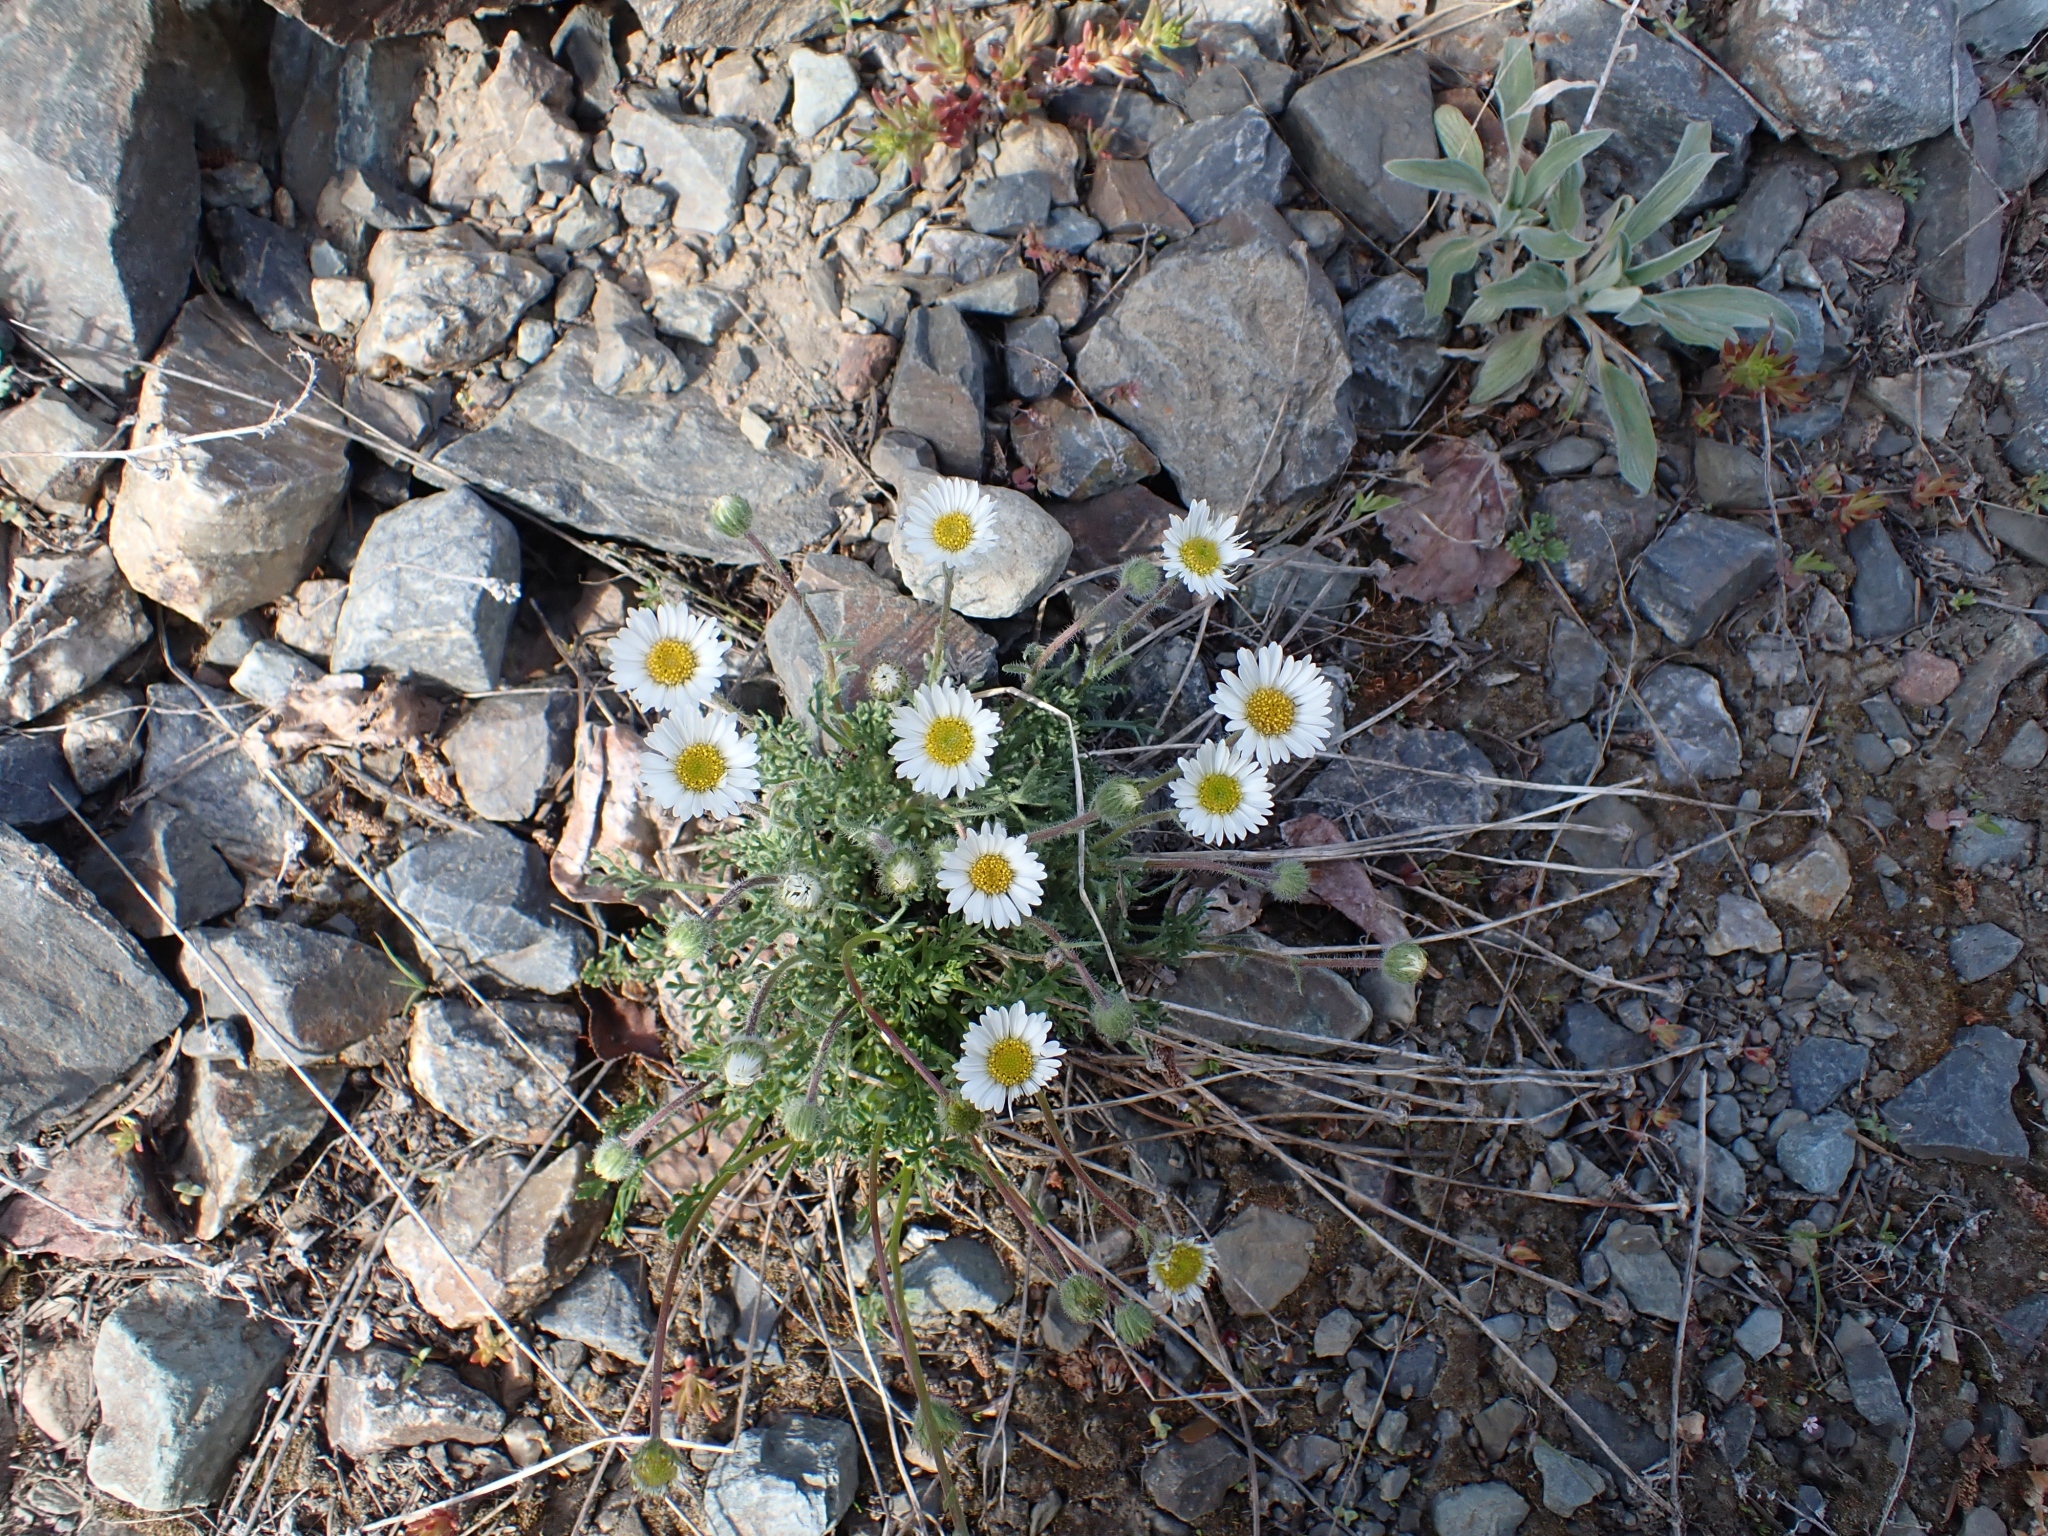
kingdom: Plantae
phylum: Tracheophyta
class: Magnoliopsida
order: Asterales
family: Asteraceae
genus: Erigeron
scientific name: Erigeron compositus
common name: Dwarf mountain fleabane
